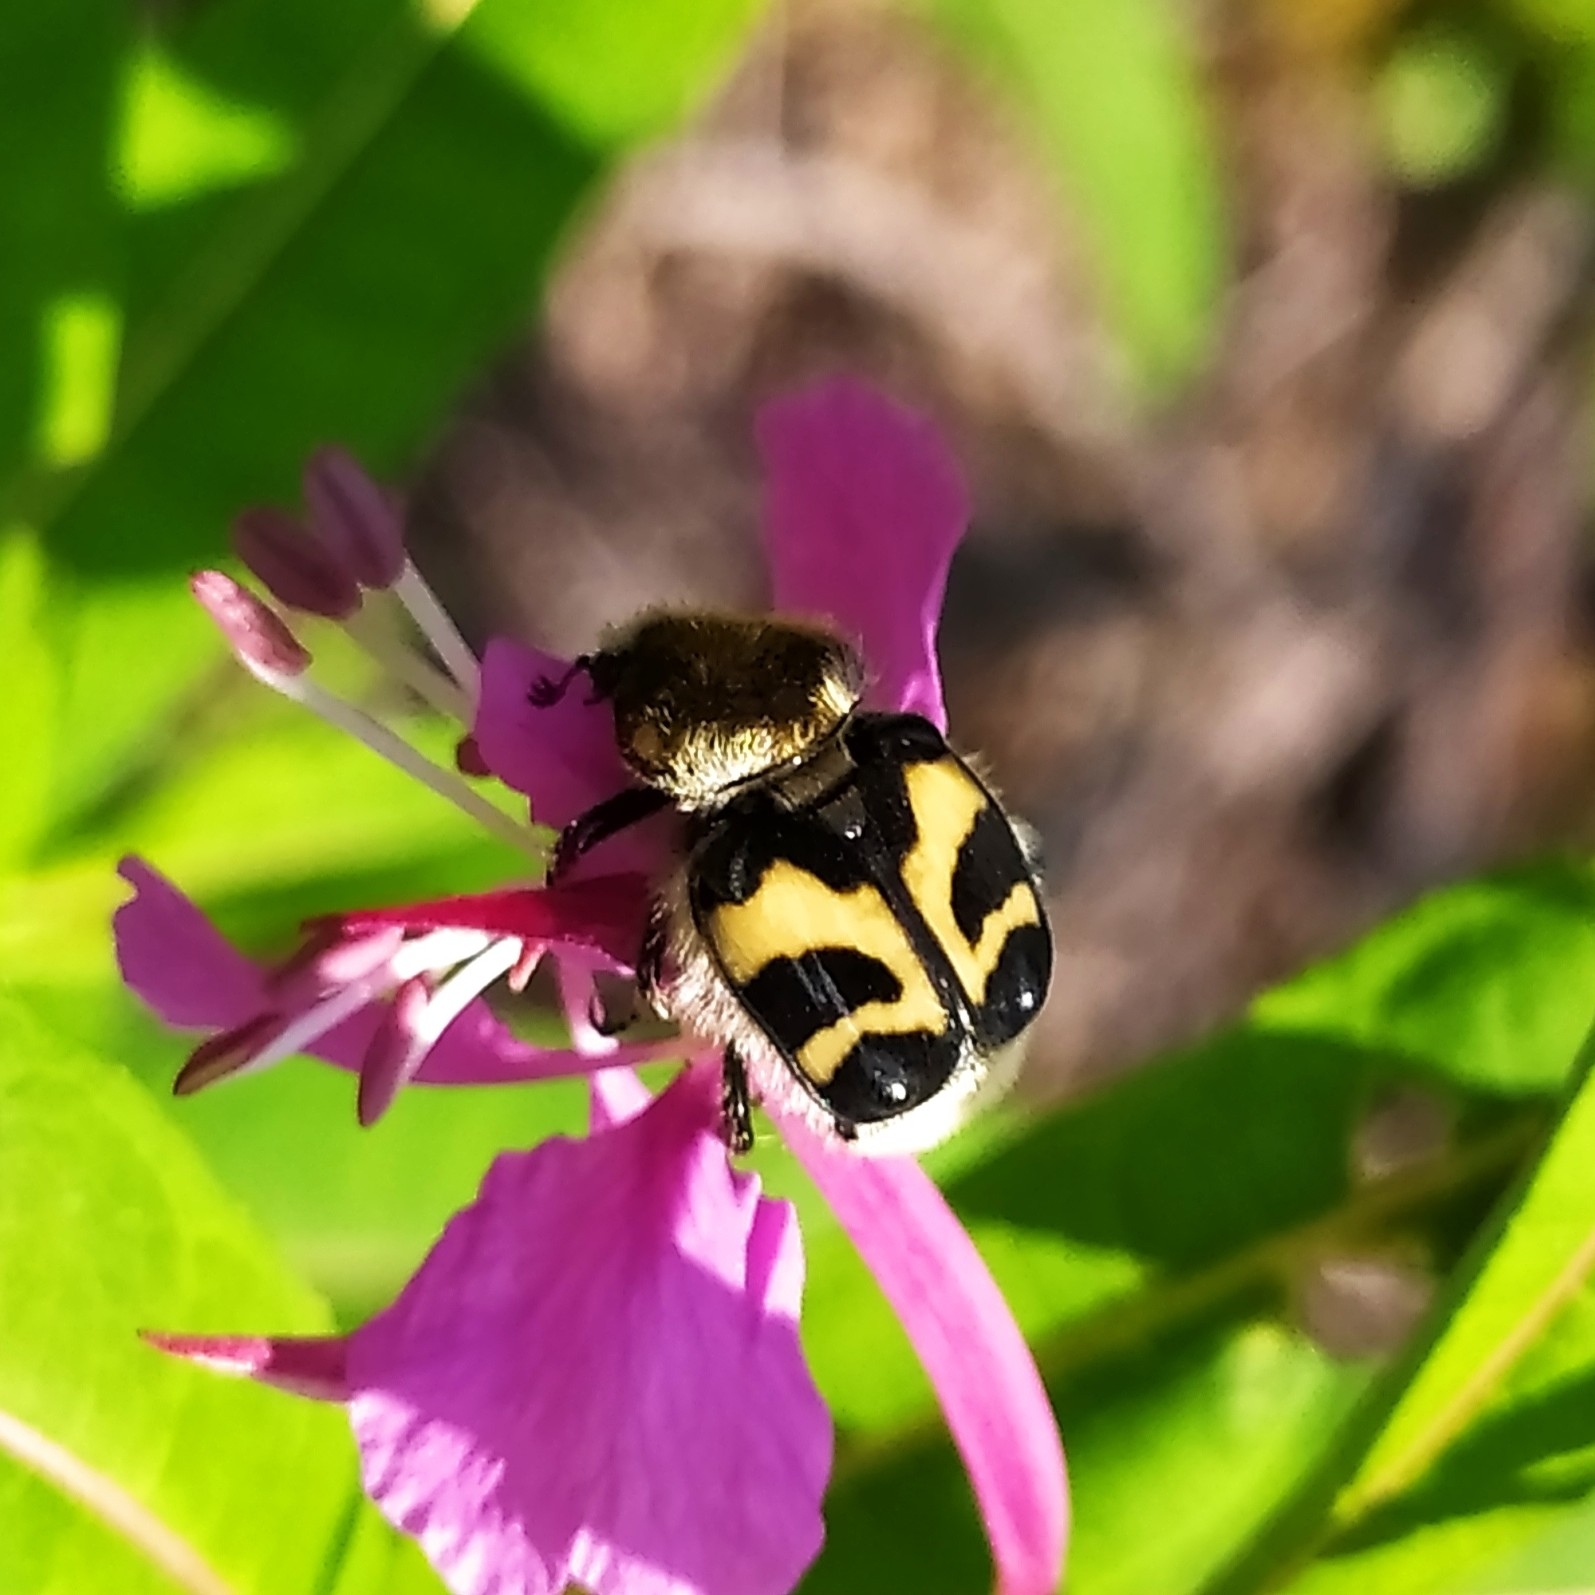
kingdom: Animalia
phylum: Arthropoda
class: Insecta
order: Coleoptera
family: Scarabaeidae
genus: Trichius
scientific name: Trichius fasciatus
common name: Bee beetle
